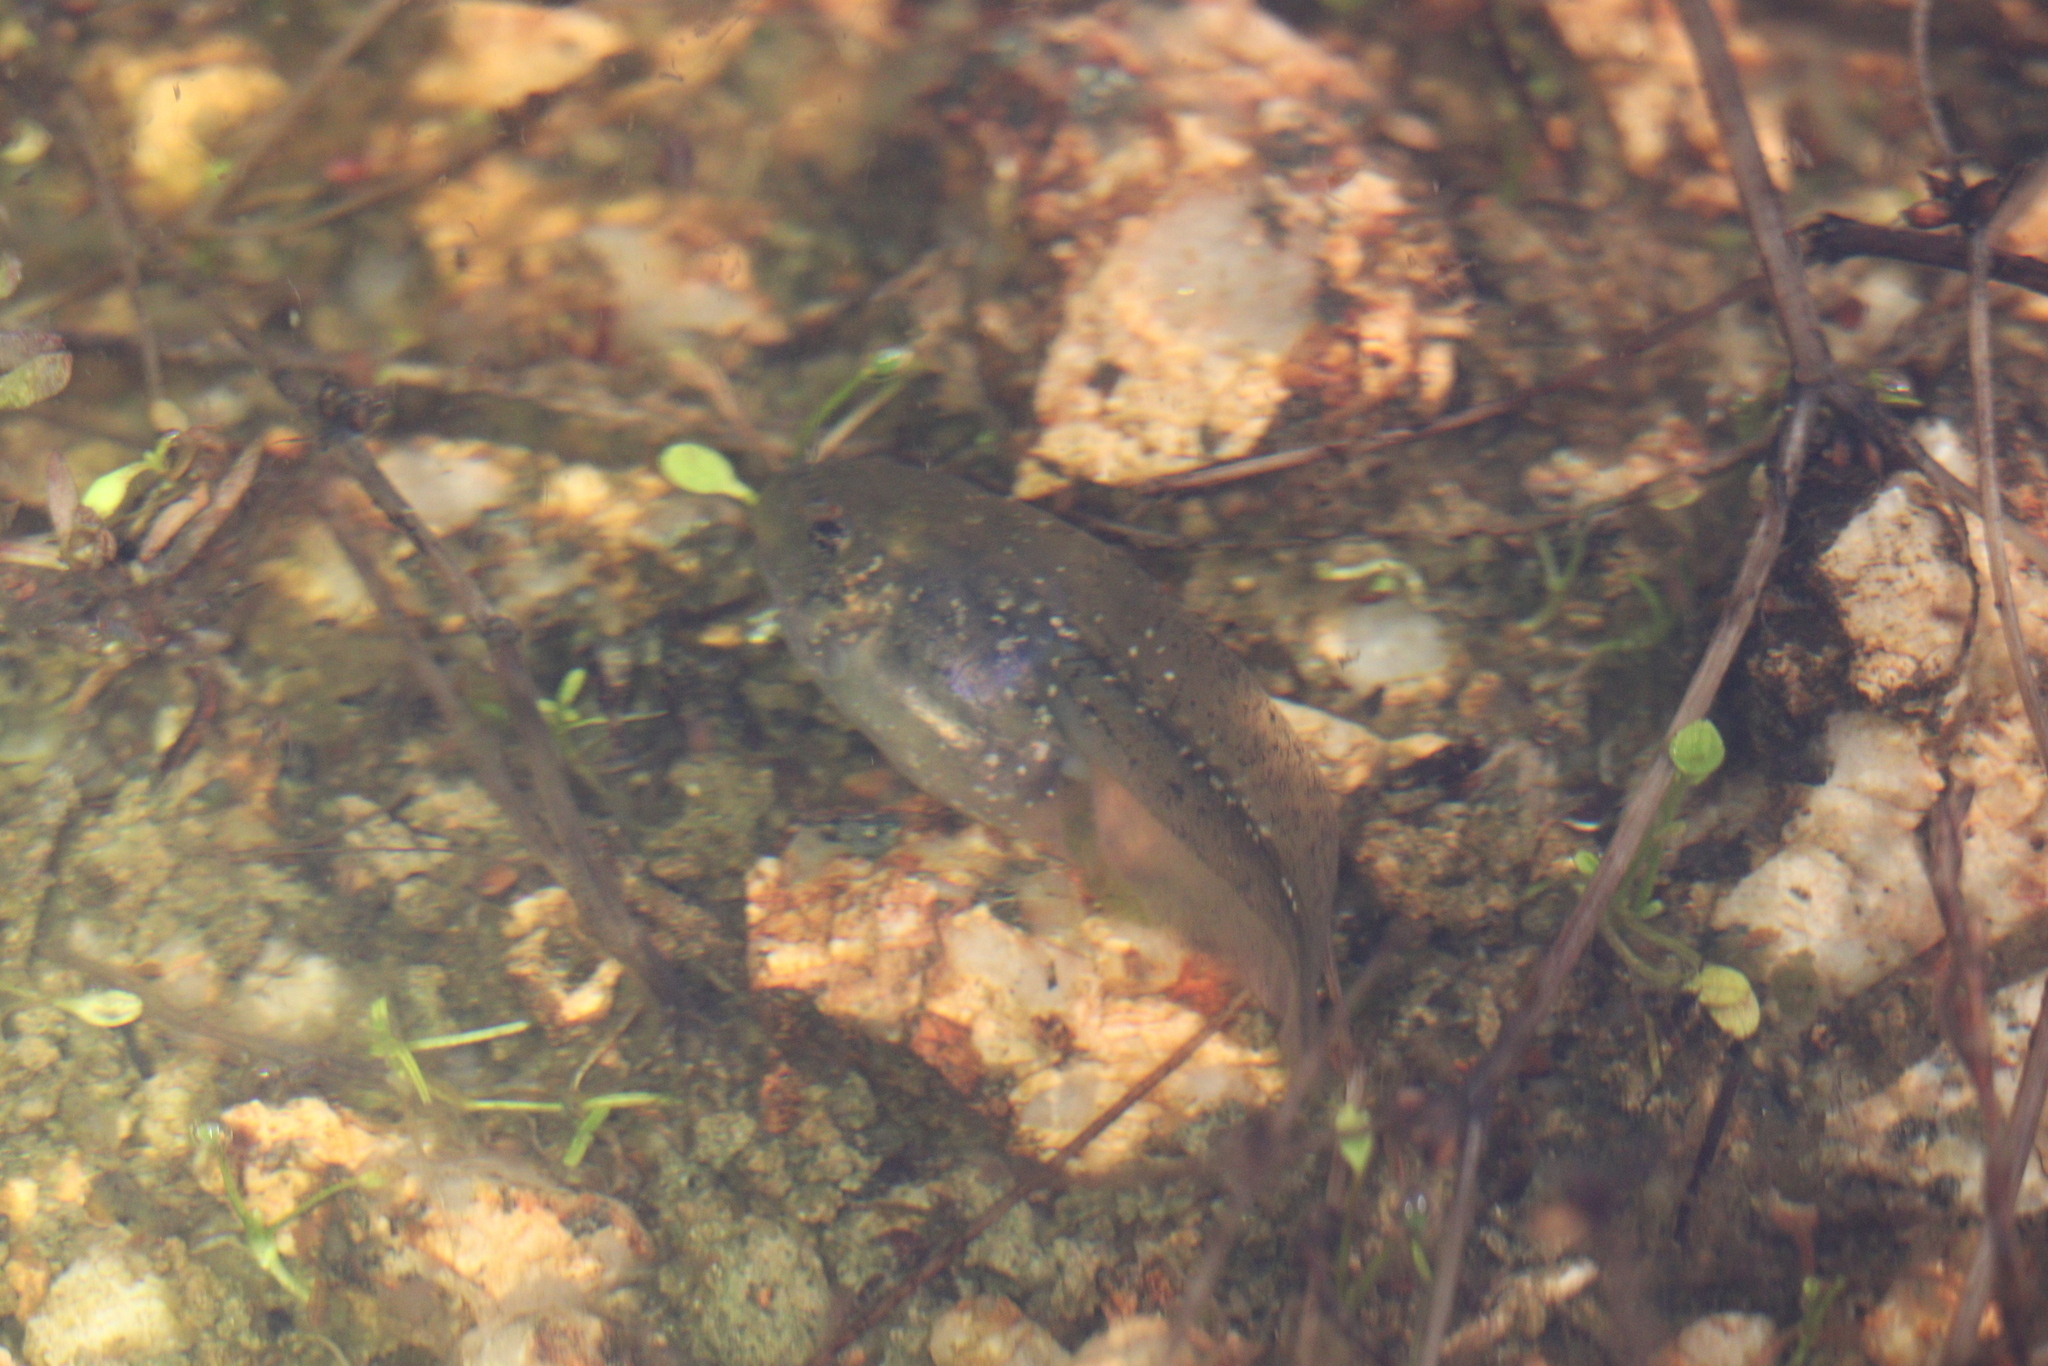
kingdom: Animalia
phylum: Chordata
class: Amphibia
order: Anura
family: Pelobatidae
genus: Pelobates
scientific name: Pelobates cultripes
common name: Western spadefoot
